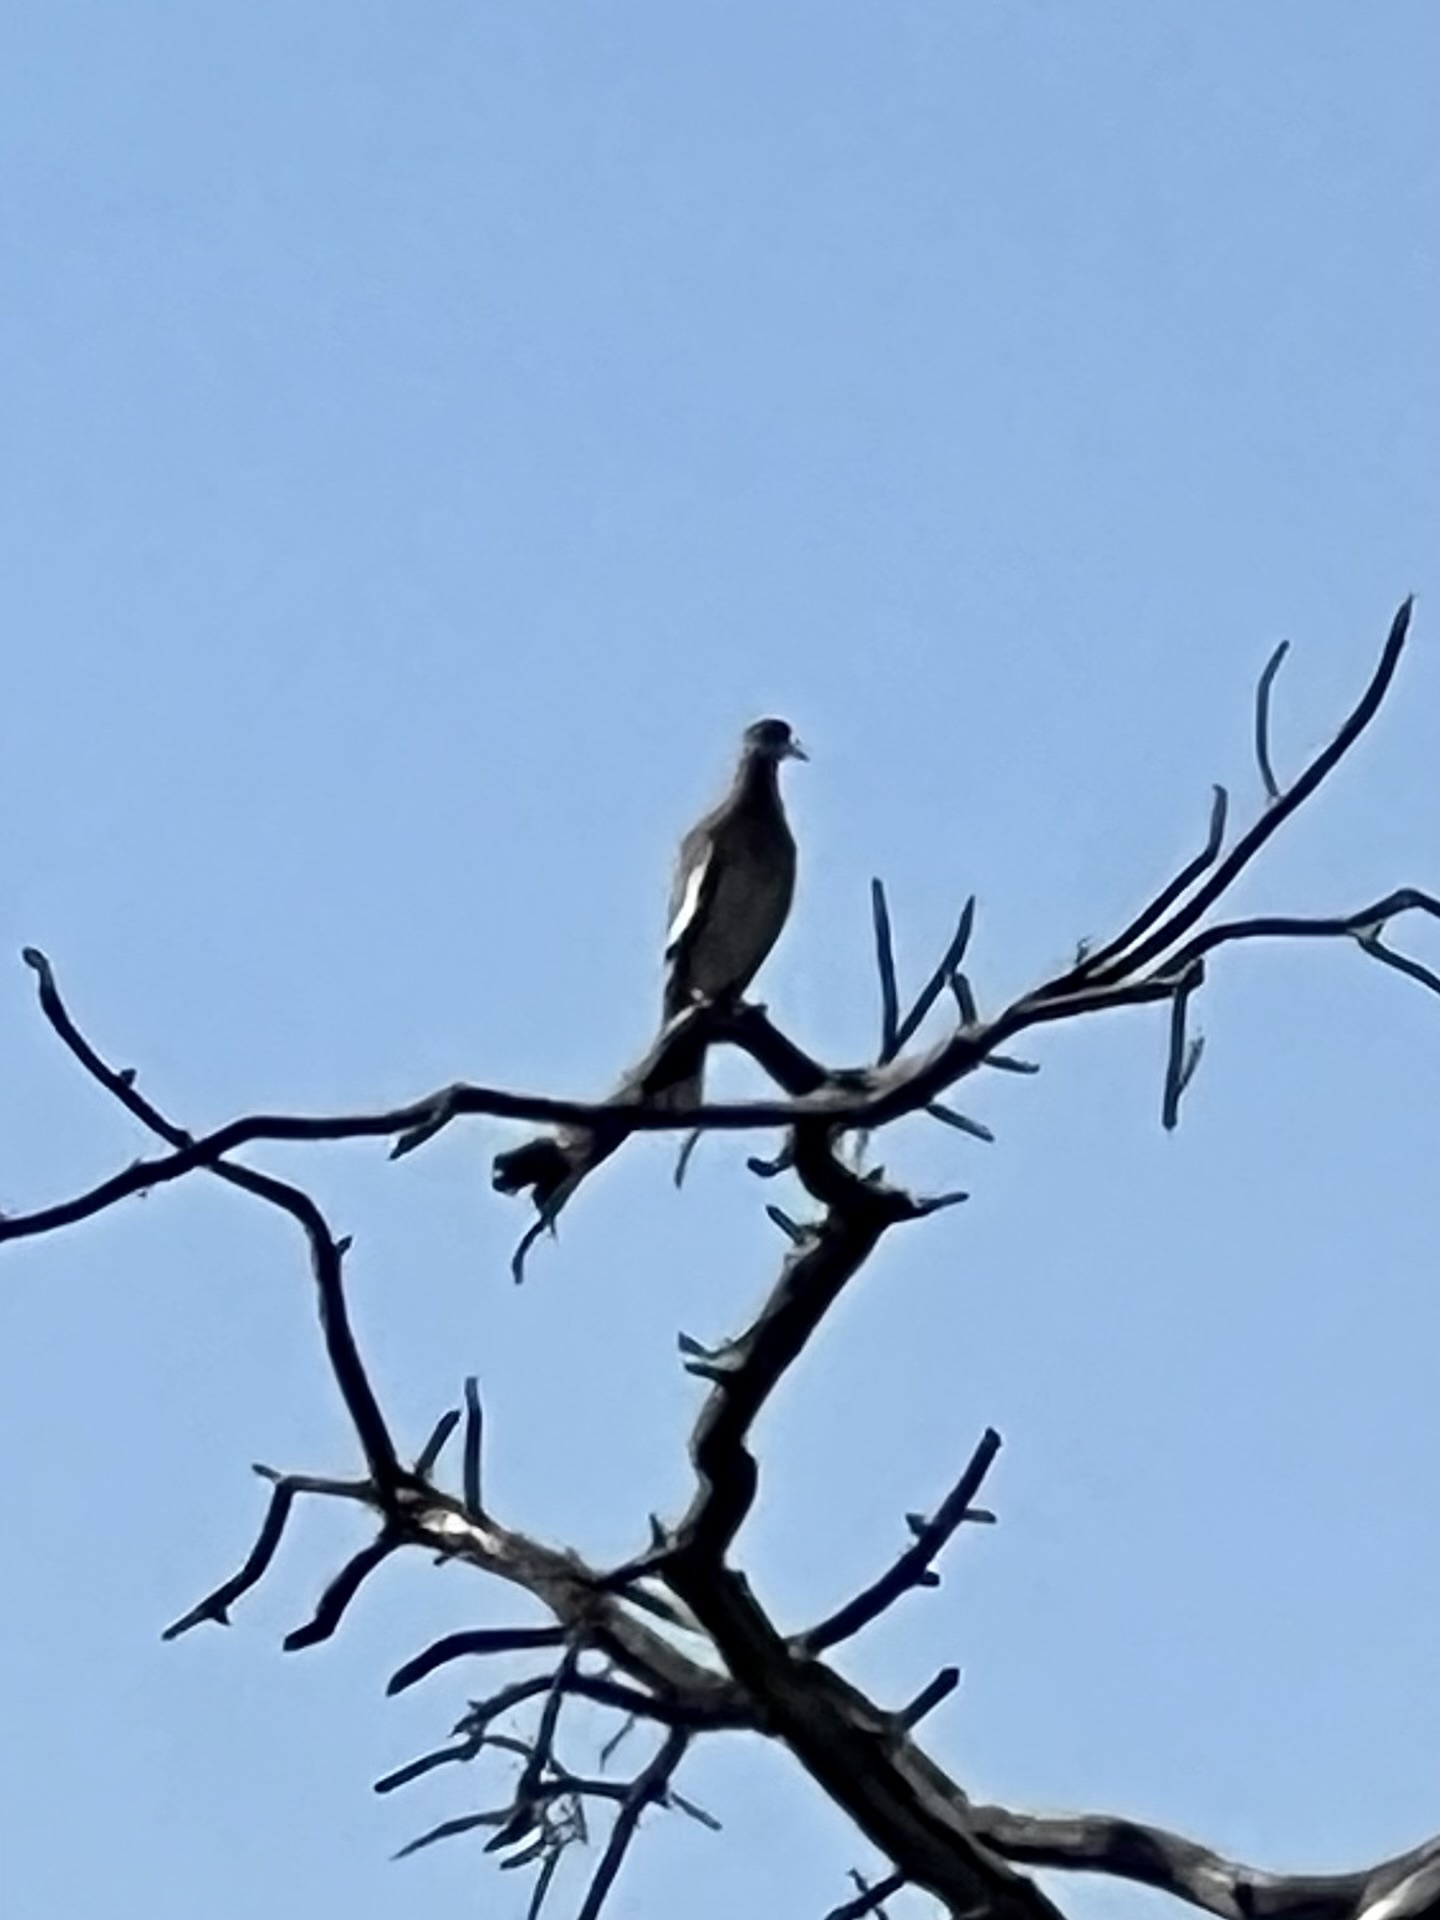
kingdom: Animalia
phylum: Chordata
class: Aves
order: Columbiformes
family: Columbidae
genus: Zenaida
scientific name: Zenaida asiatica
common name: White-winged dove
